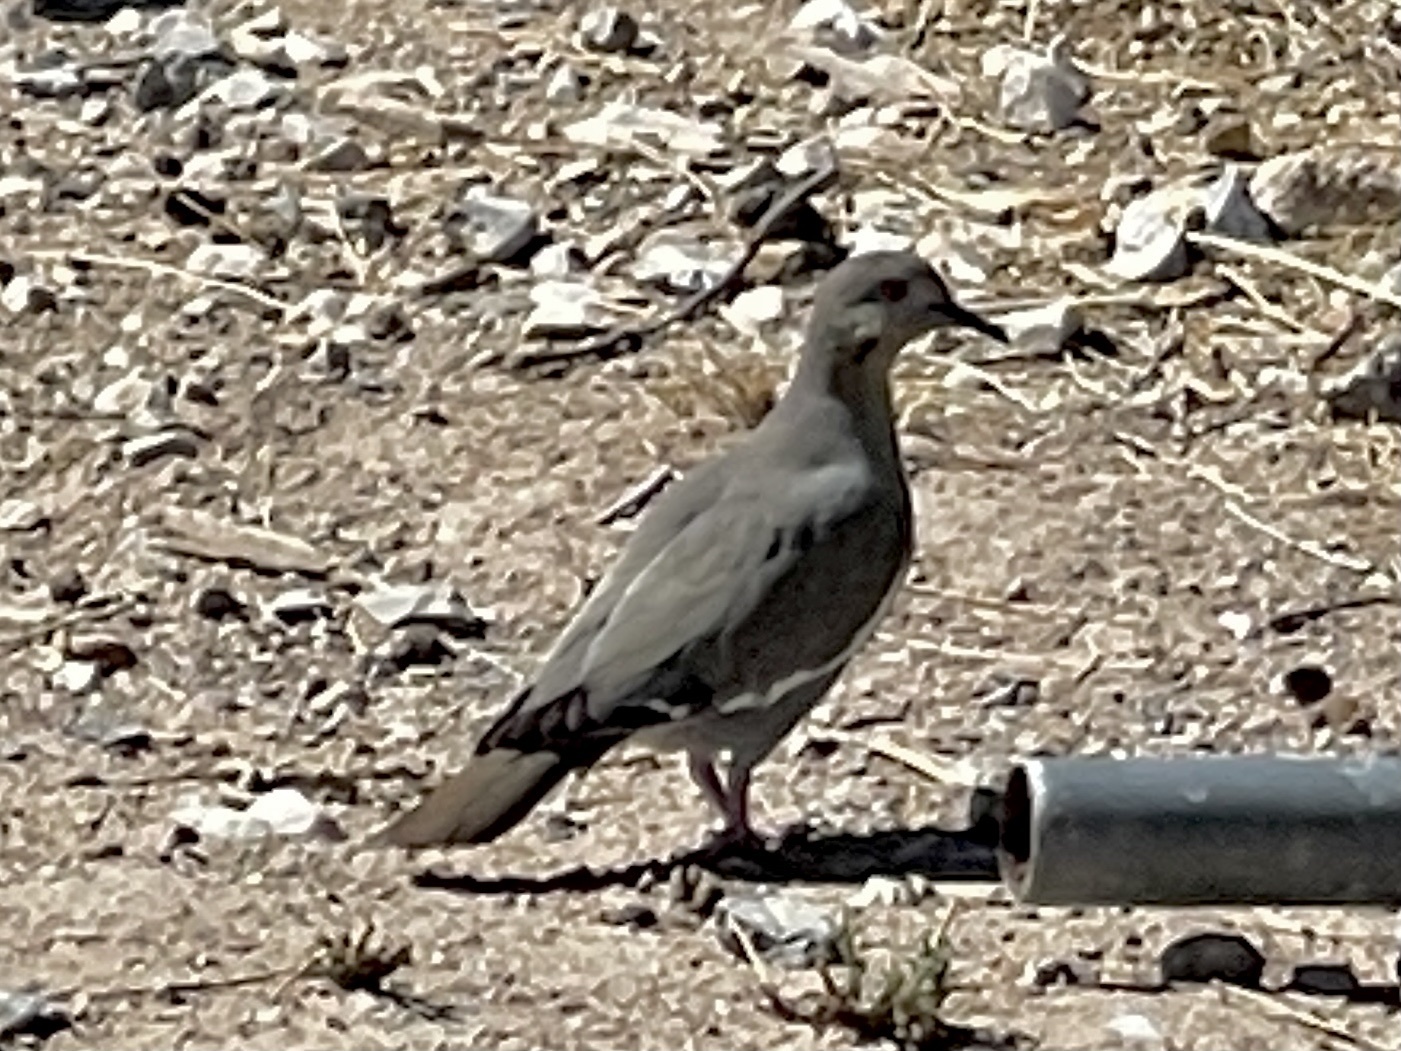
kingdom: Animalia
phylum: Chordata
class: Aves
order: Columbiformes
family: Columbidae
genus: Zenaida
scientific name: Zenaida asiatica
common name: White-winged dove
